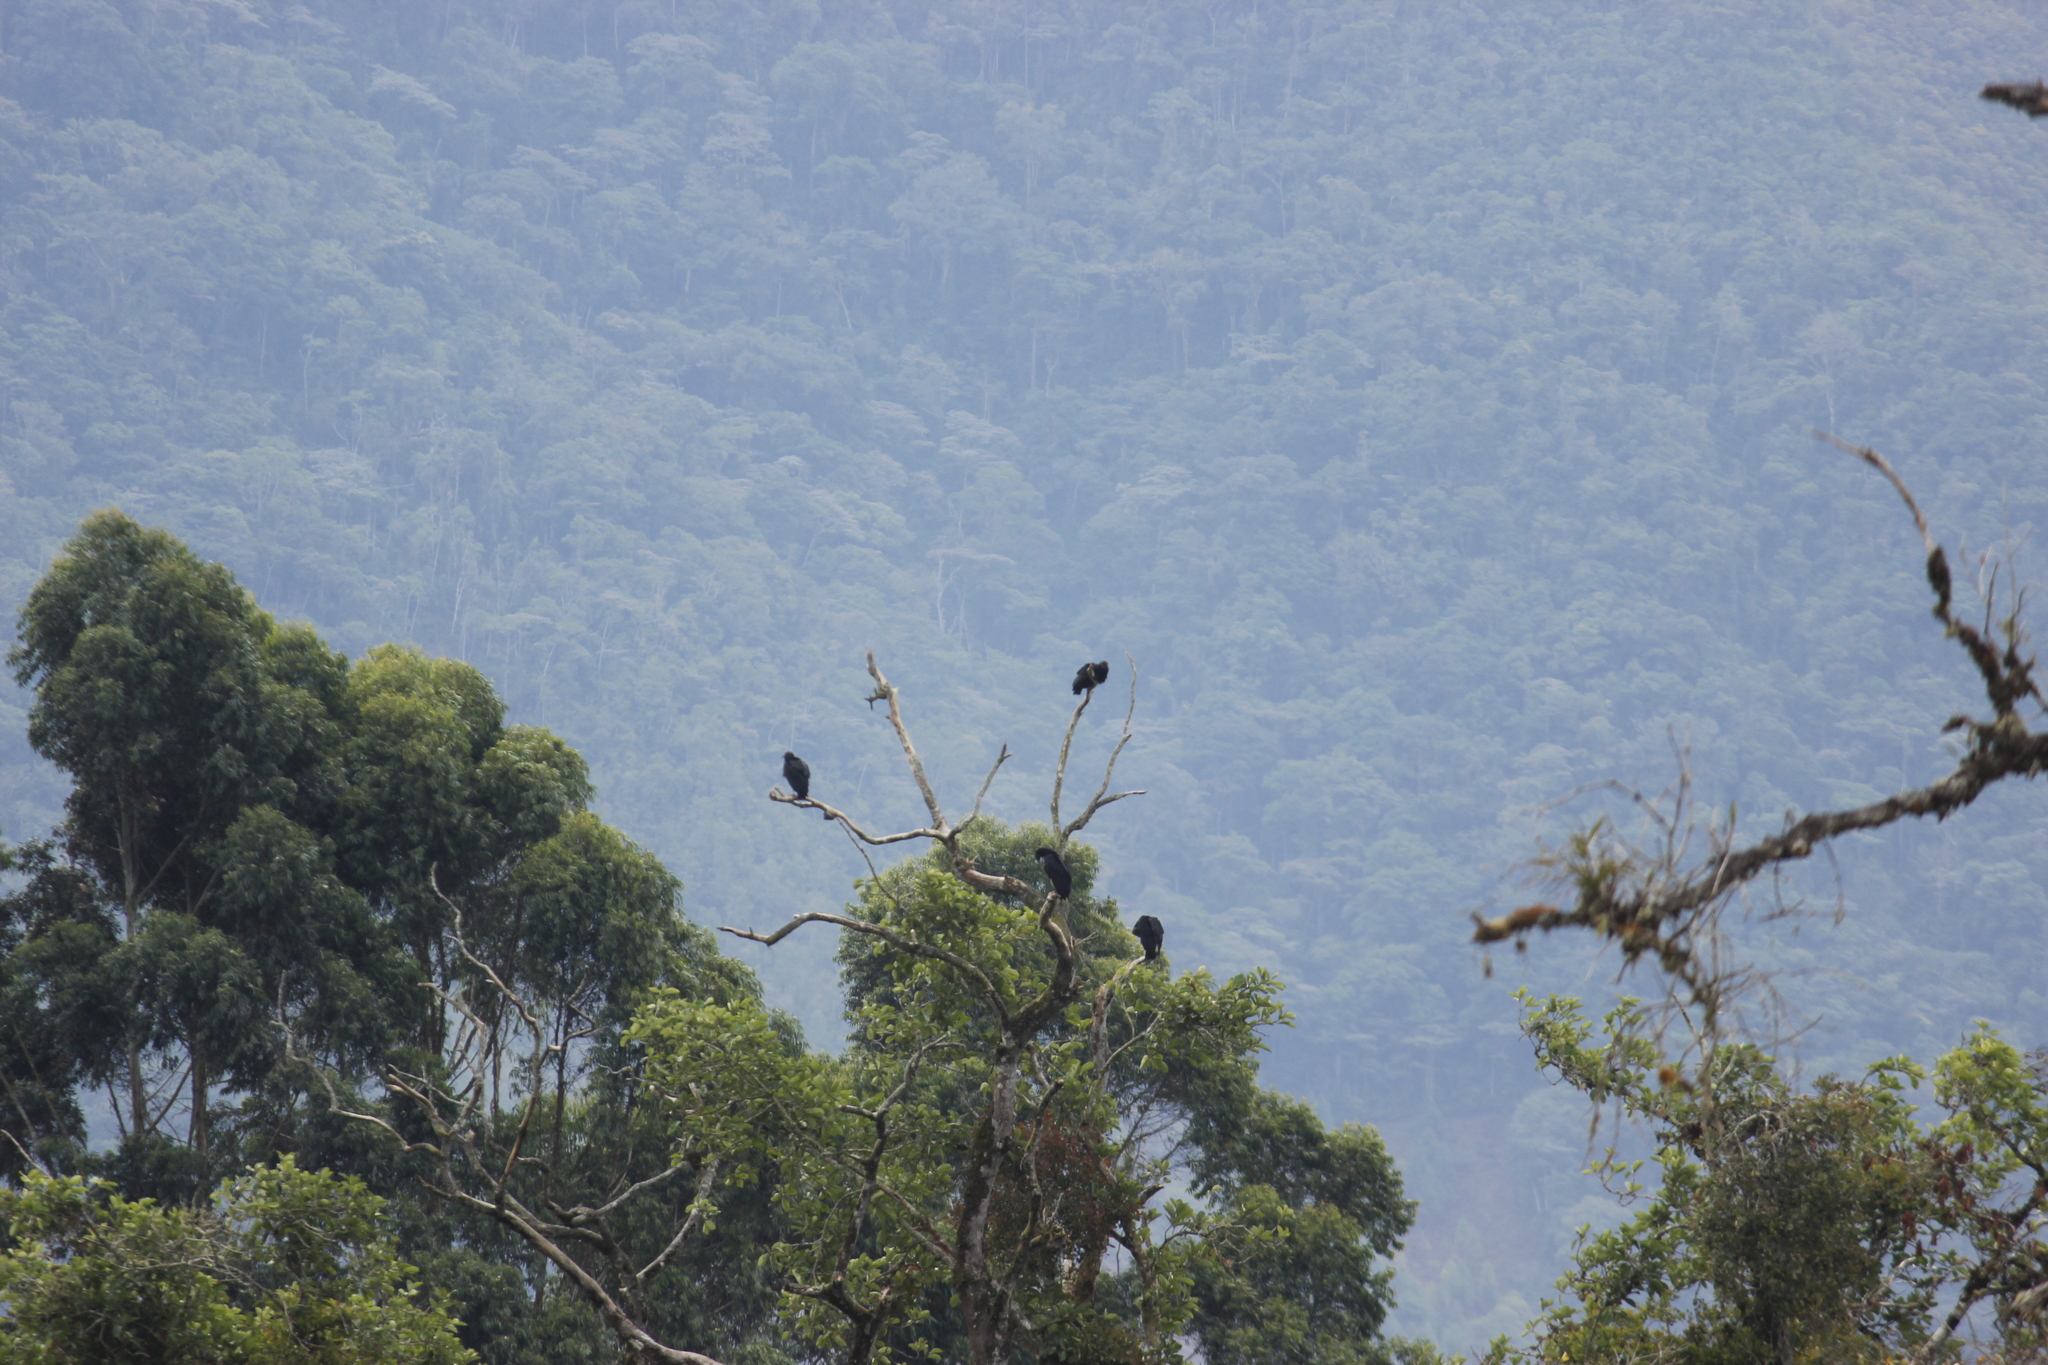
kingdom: Animalia
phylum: Chordata
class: Aves
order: Accipitriformes
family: Cathartidae
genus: Coragyps
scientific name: Coragyps atratus
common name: Black vulture
